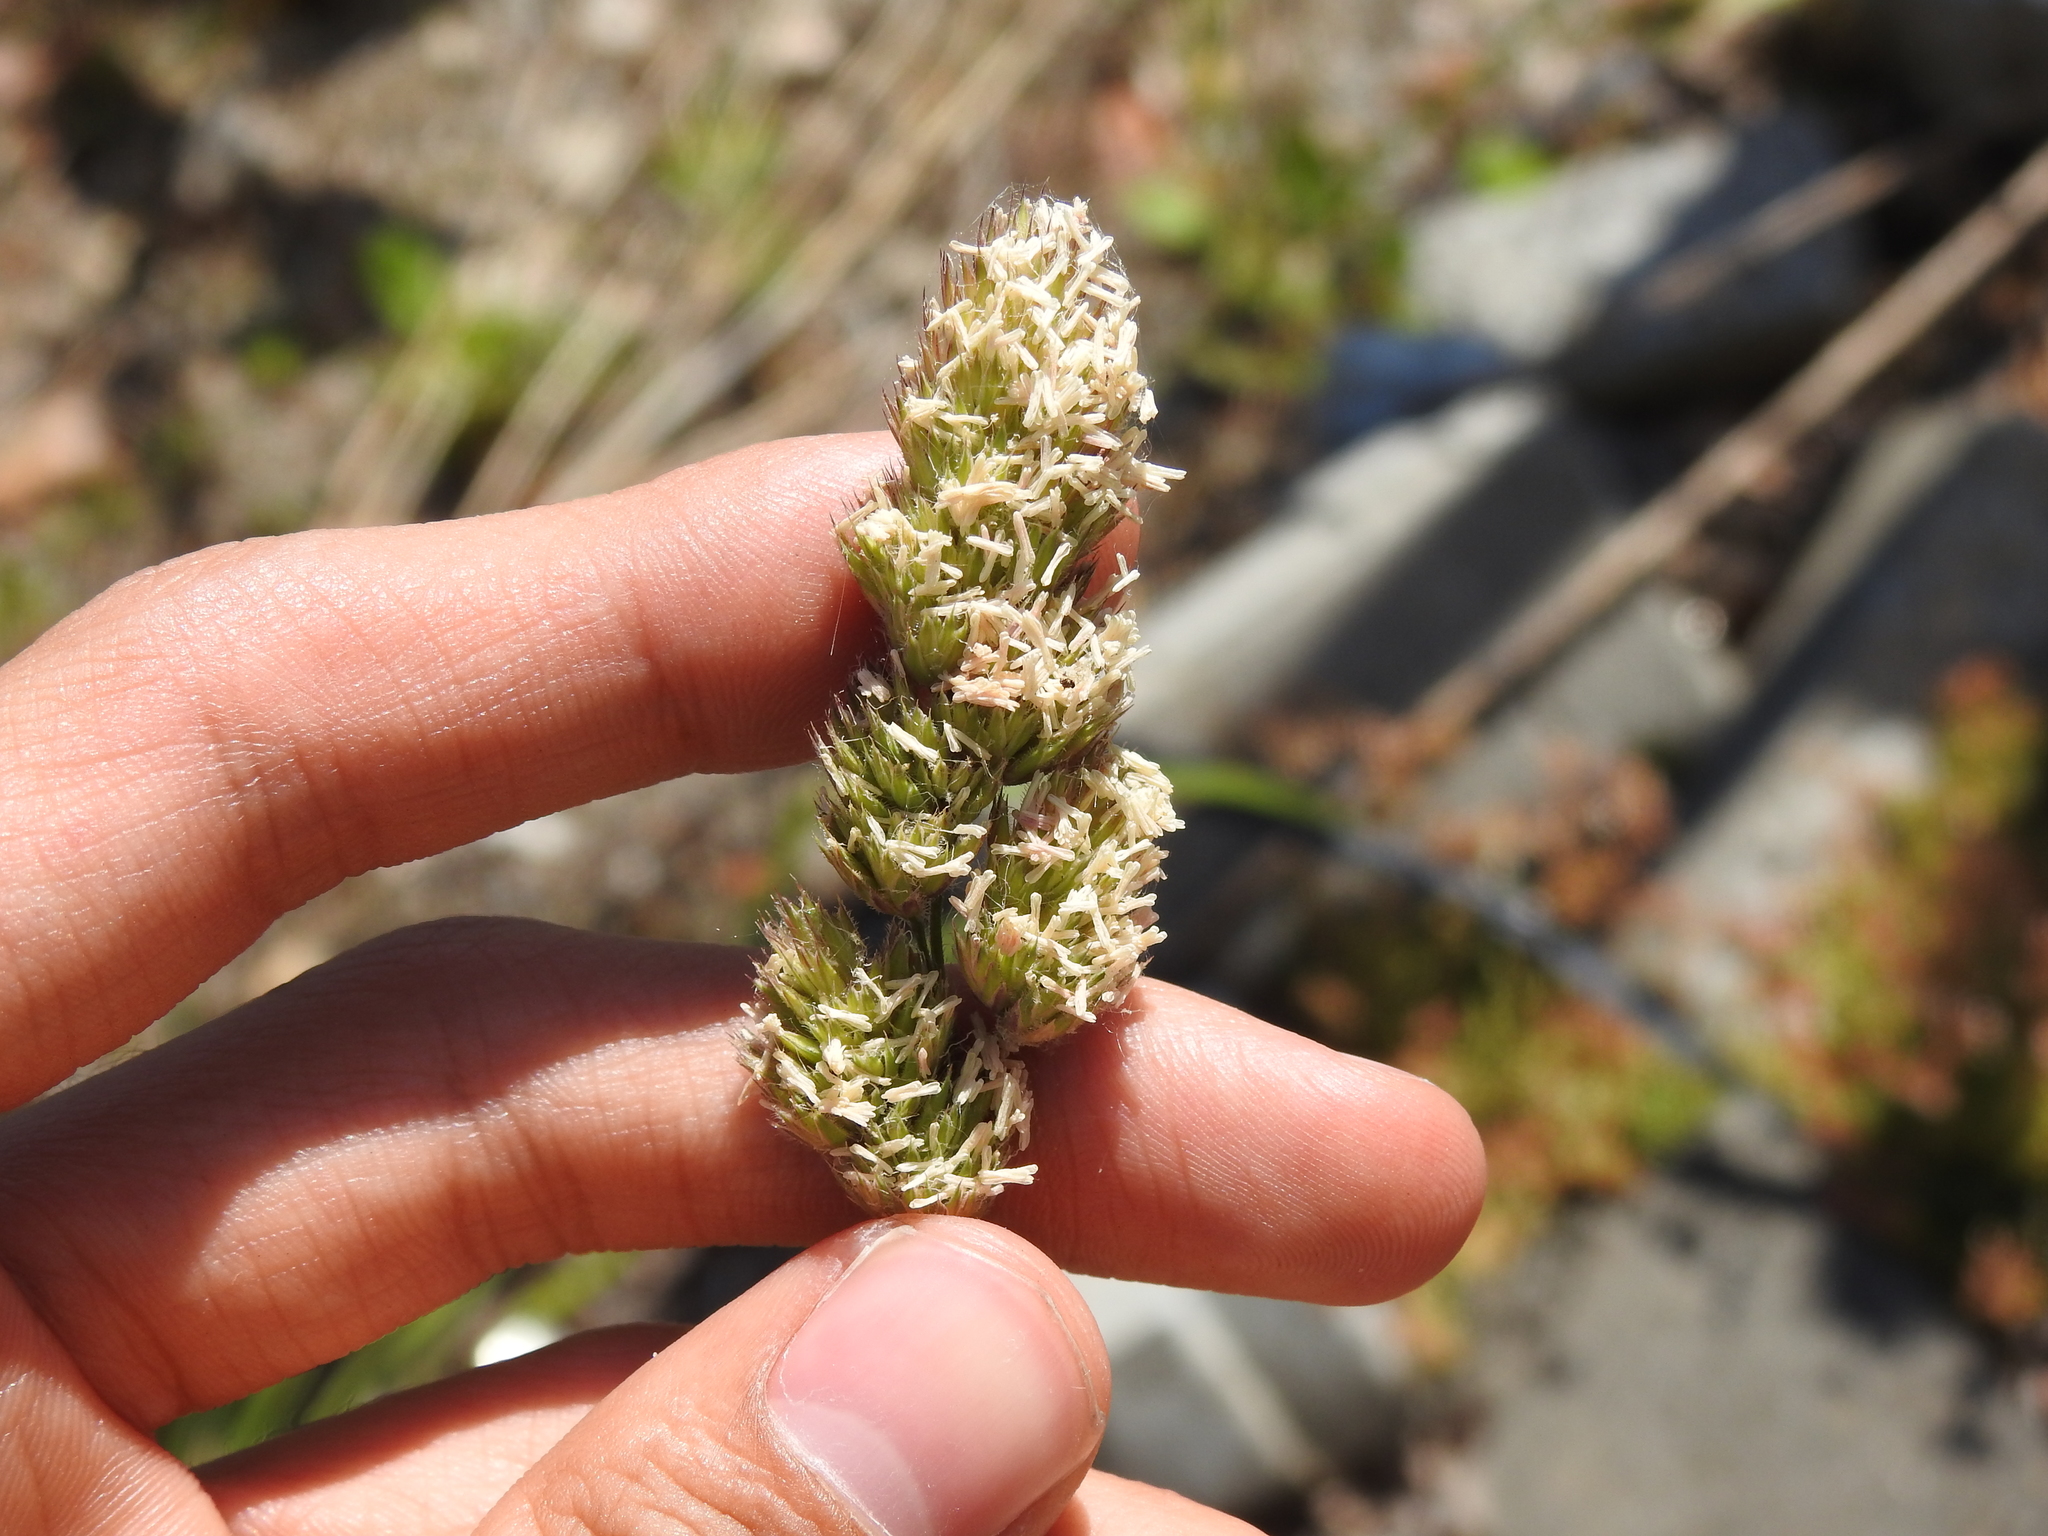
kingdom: Plantae
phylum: Tracheophyta
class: Liliopsida
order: Poales
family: Poaceae
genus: Dactylis
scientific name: Dactylis glomerata
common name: Orchardgrass
